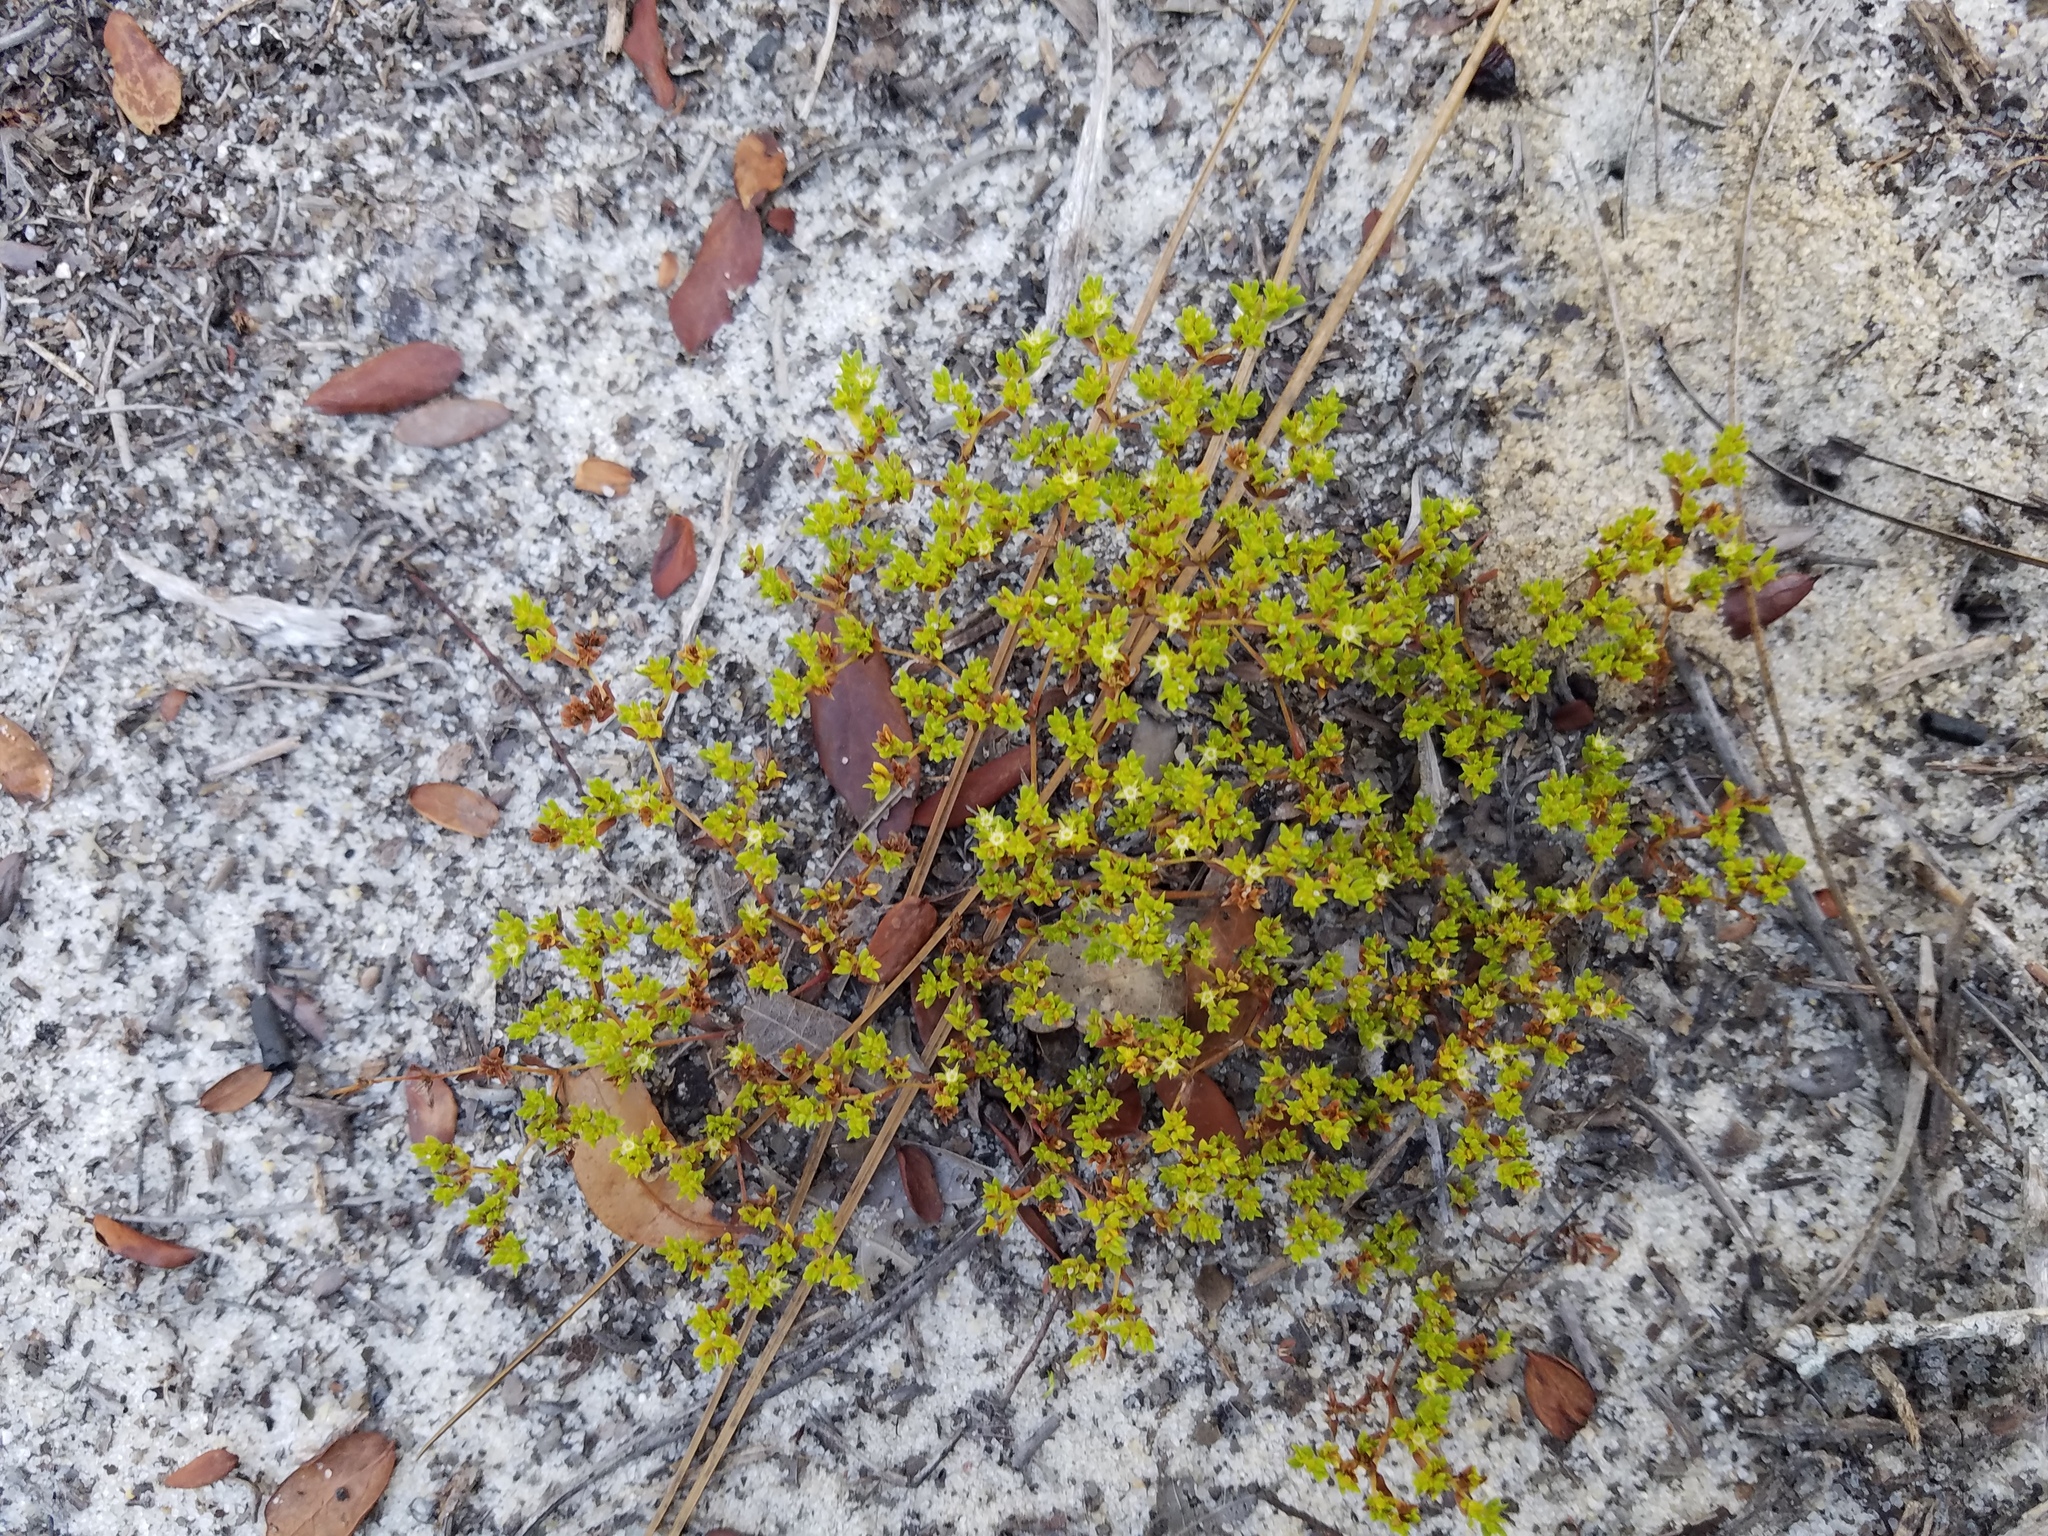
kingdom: Plantae
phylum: Tracheophyta
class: Magnoliopsida
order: Caryophyllales
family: Caryophyllaceae
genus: Paronychia
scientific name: Paronychia herniarioides
